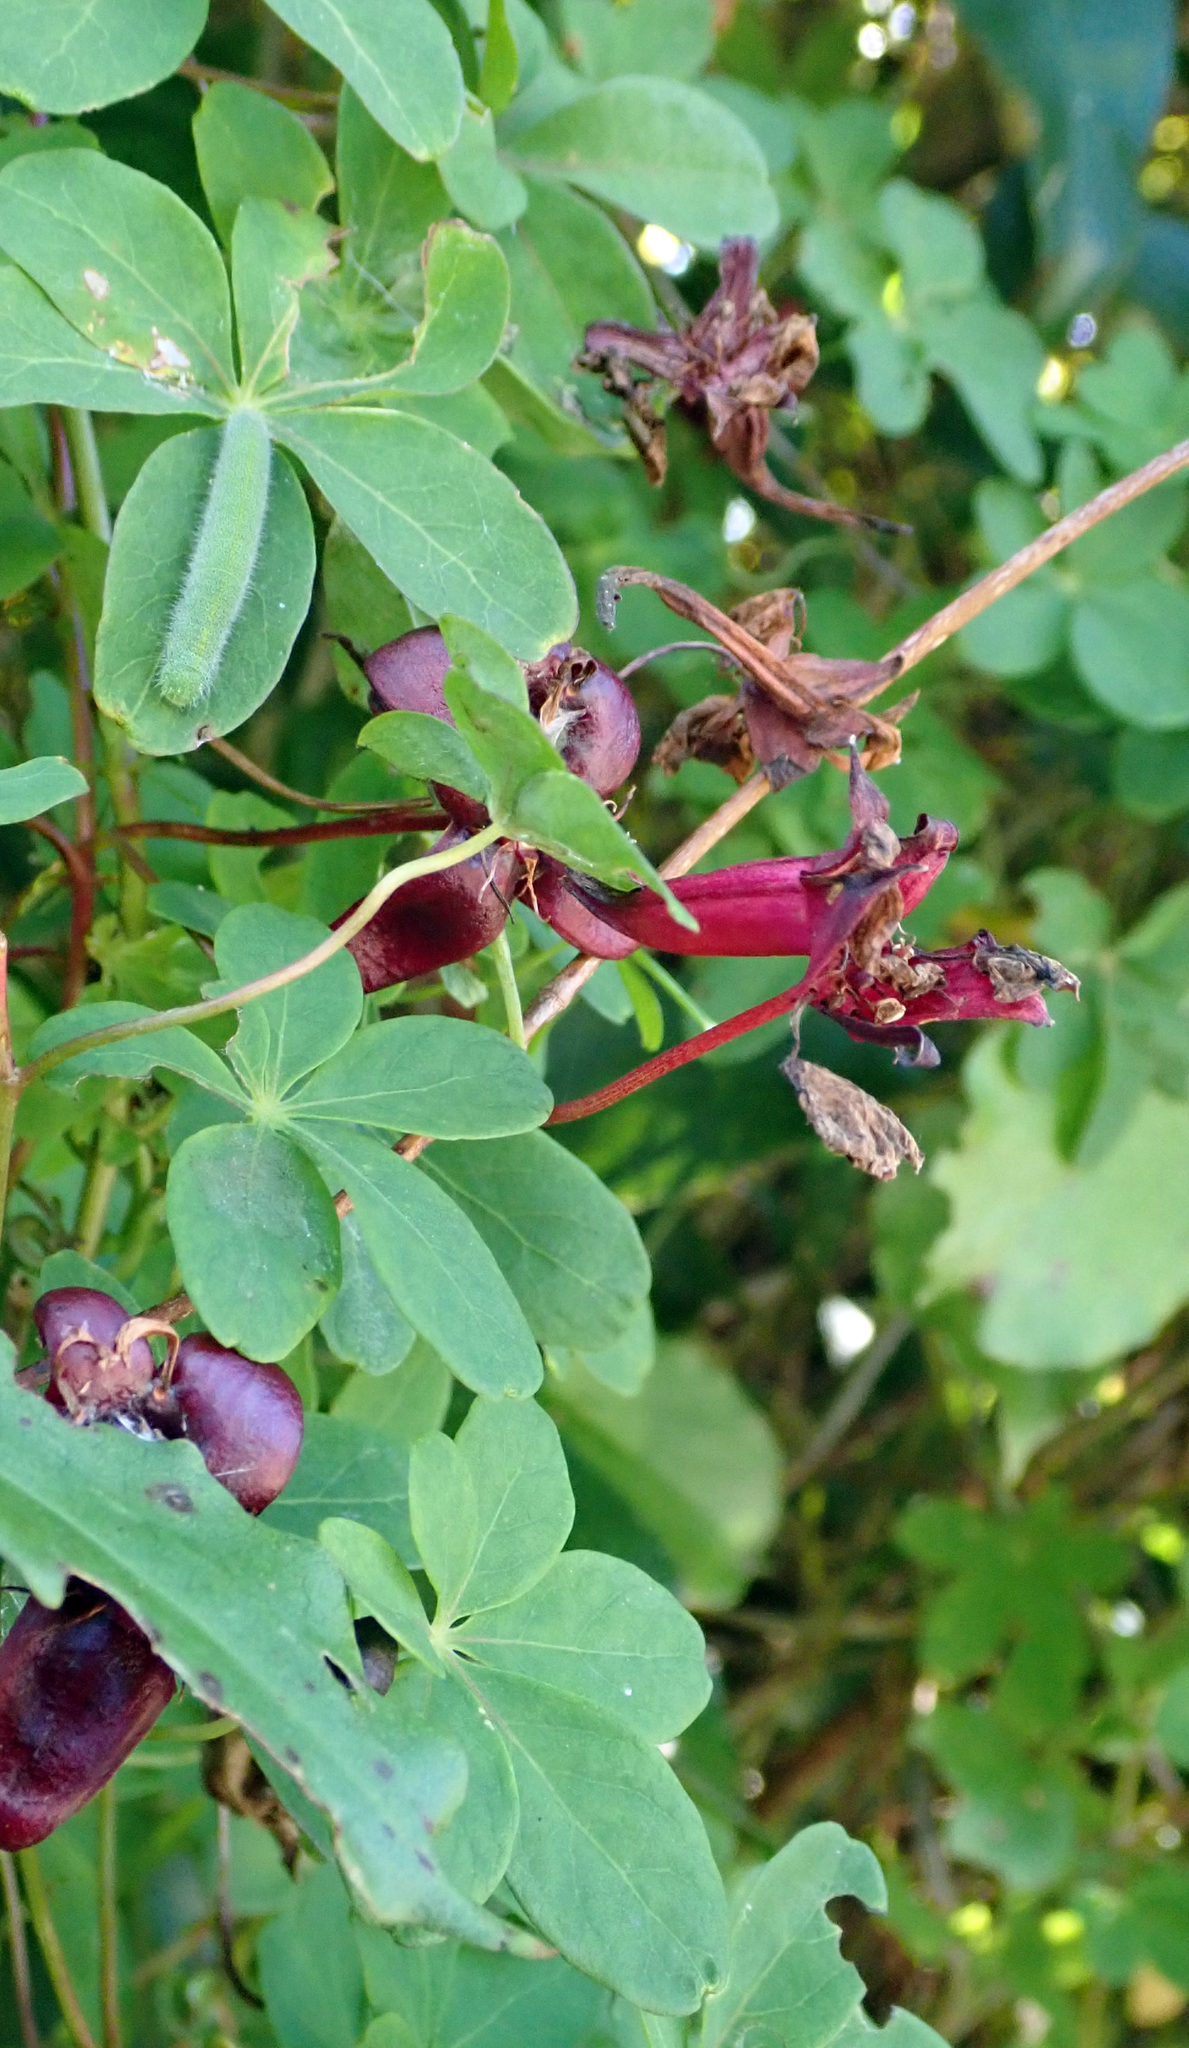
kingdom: Plantae
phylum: Tracheophyta
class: Magnoliopsida
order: Brassicales
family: Tropaeolaceae
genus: Tropaeolum
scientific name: Tropaeolum speciosum
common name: Flame nasturtium
